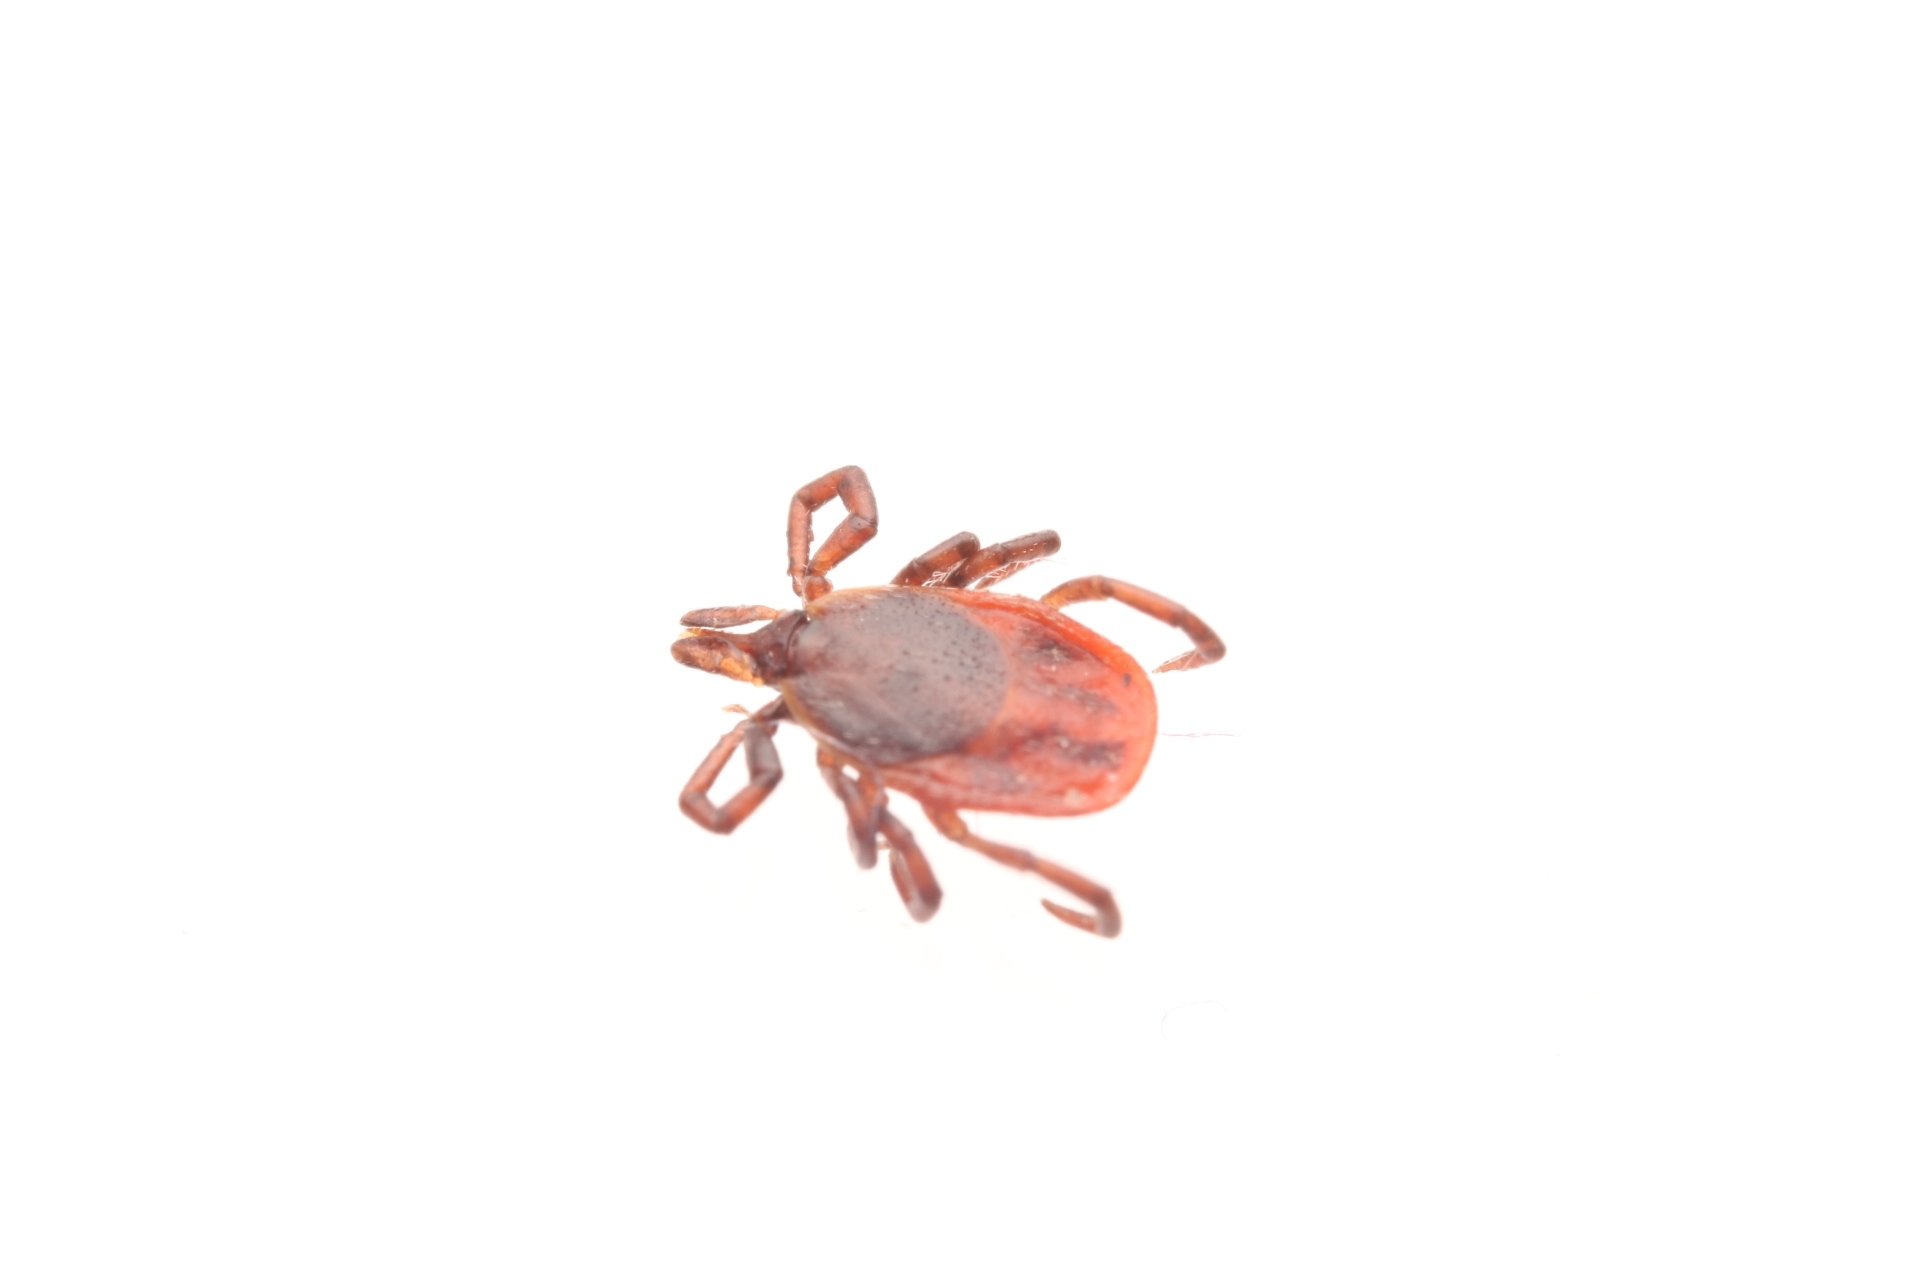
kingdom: Animalia
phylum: Arthropoda
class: Arachnida
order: Ixodida
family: Ixodidae
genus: Ixodes
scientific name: Ixodes scapularis
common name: Black legged tick
